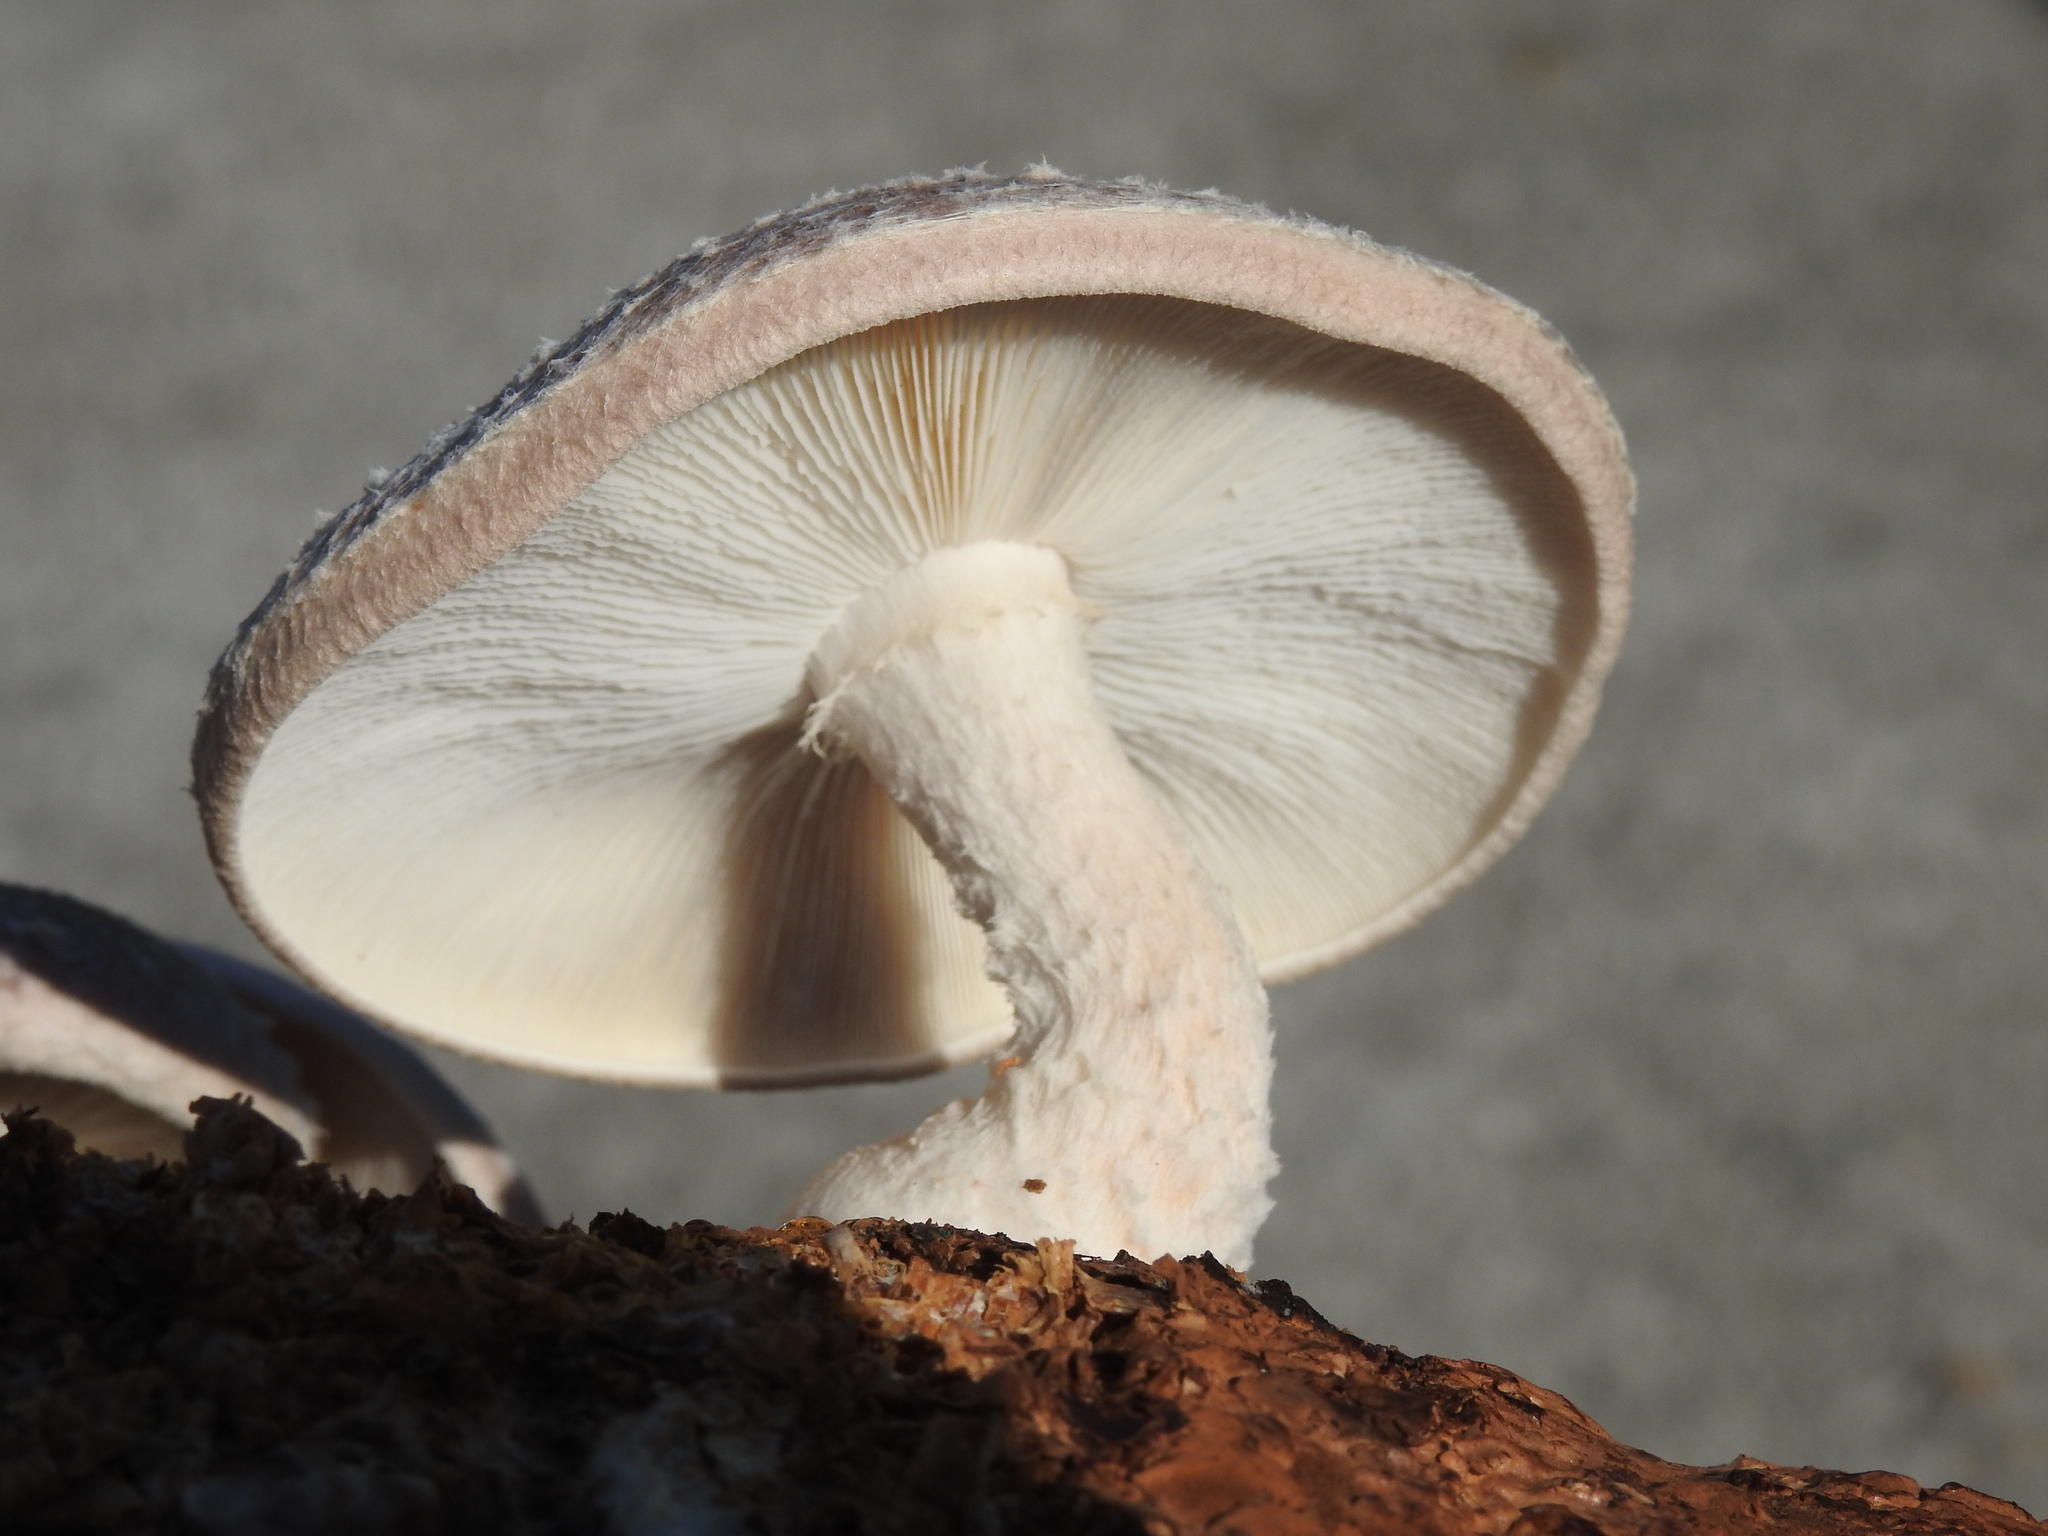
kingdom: Fungi
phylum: Basidiomycota
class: Agaricomycetes
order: Agaricales
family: Omphalotaceae
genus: Lentinula
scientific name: Lentinula novae-zelandiae
